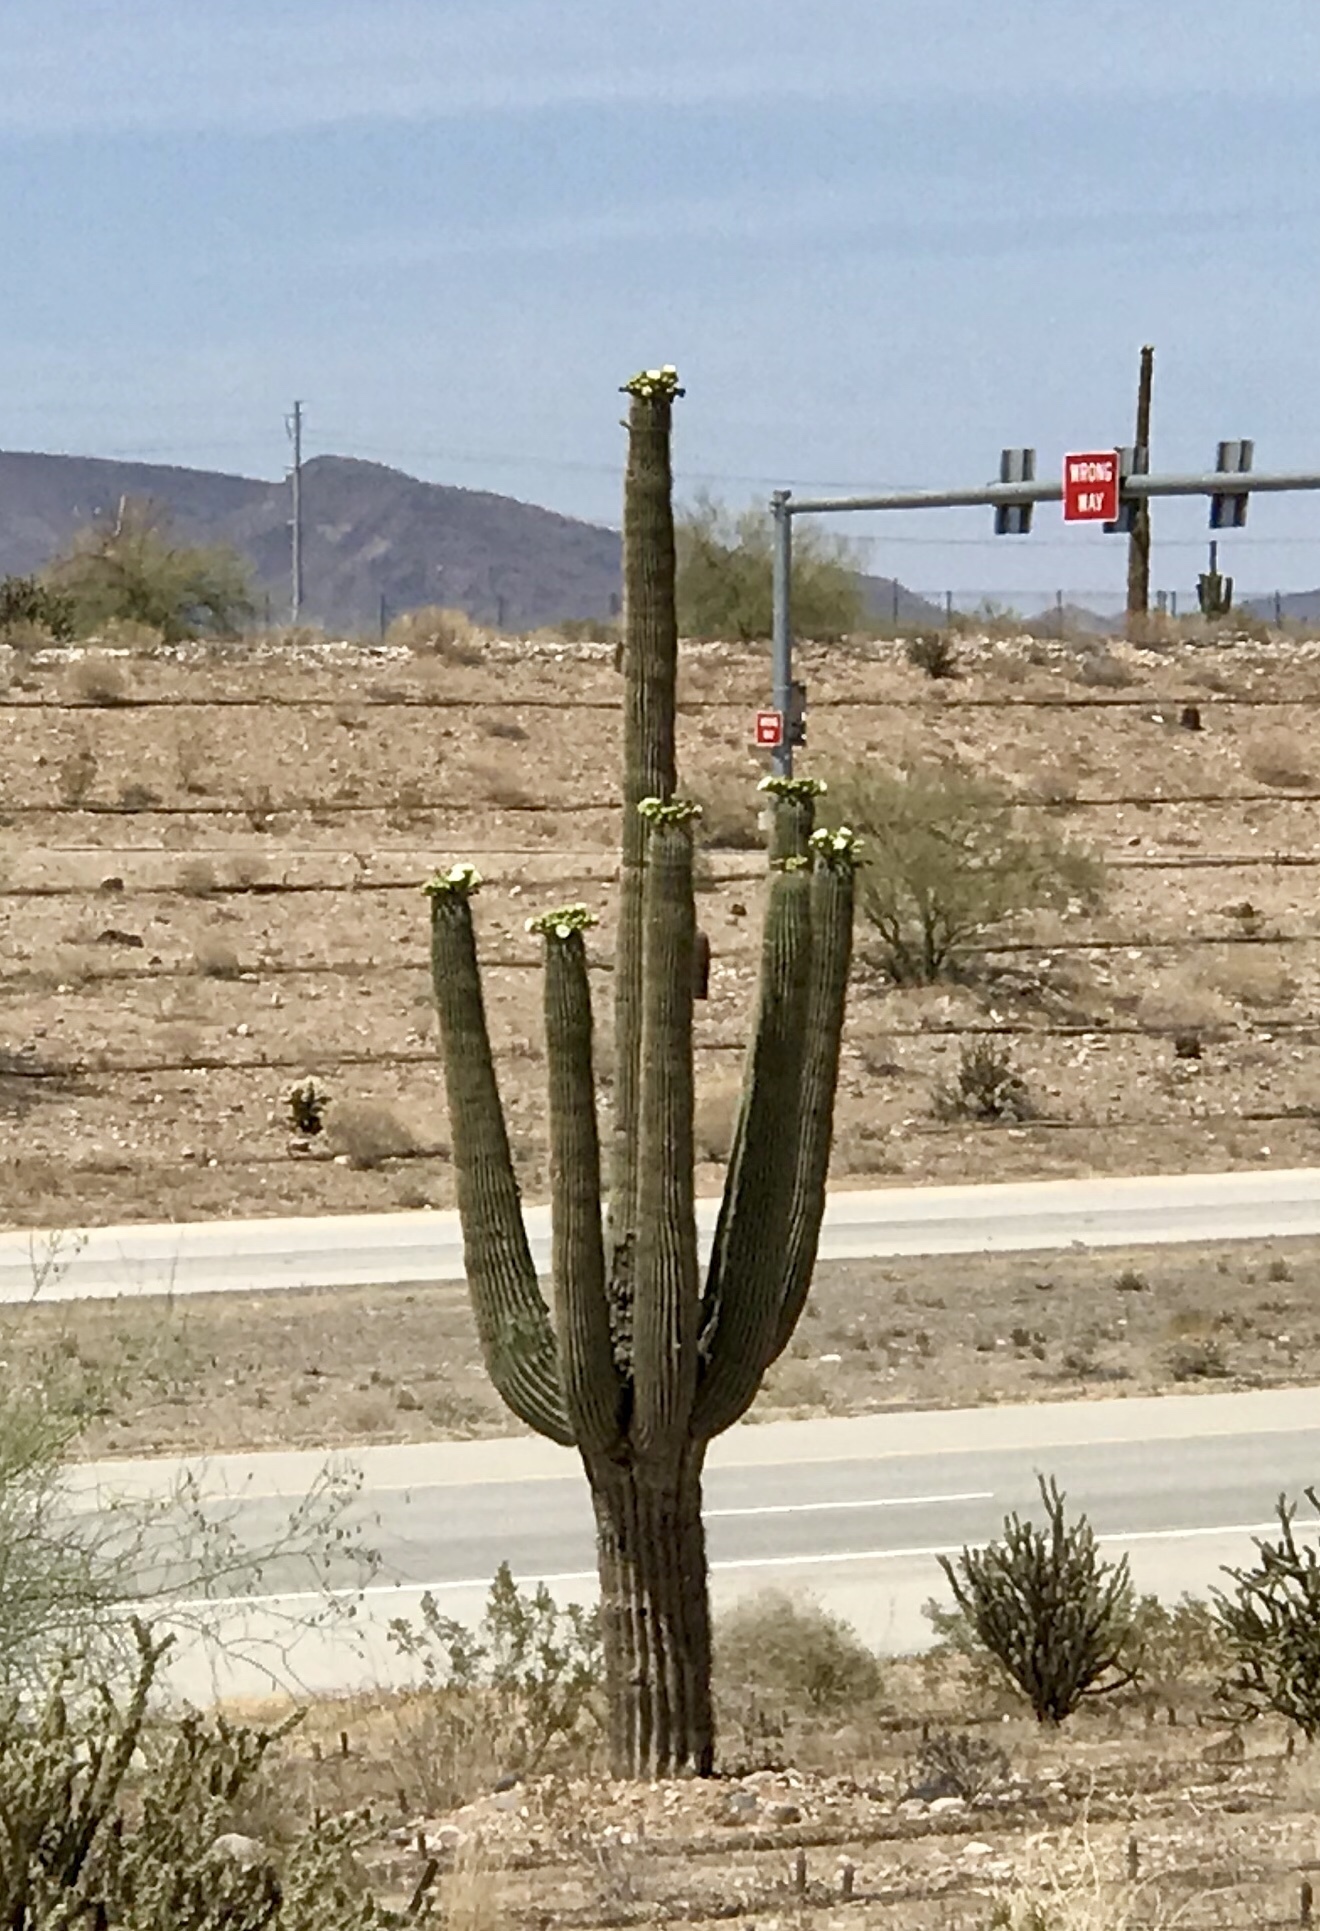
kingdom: Plantae
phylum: Tracheophyta
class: Magnoliopsida
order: Caryophyllales
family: Cactaceae
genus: Carnegiea
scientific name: Carnegiea gigantea
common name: Saguaro
